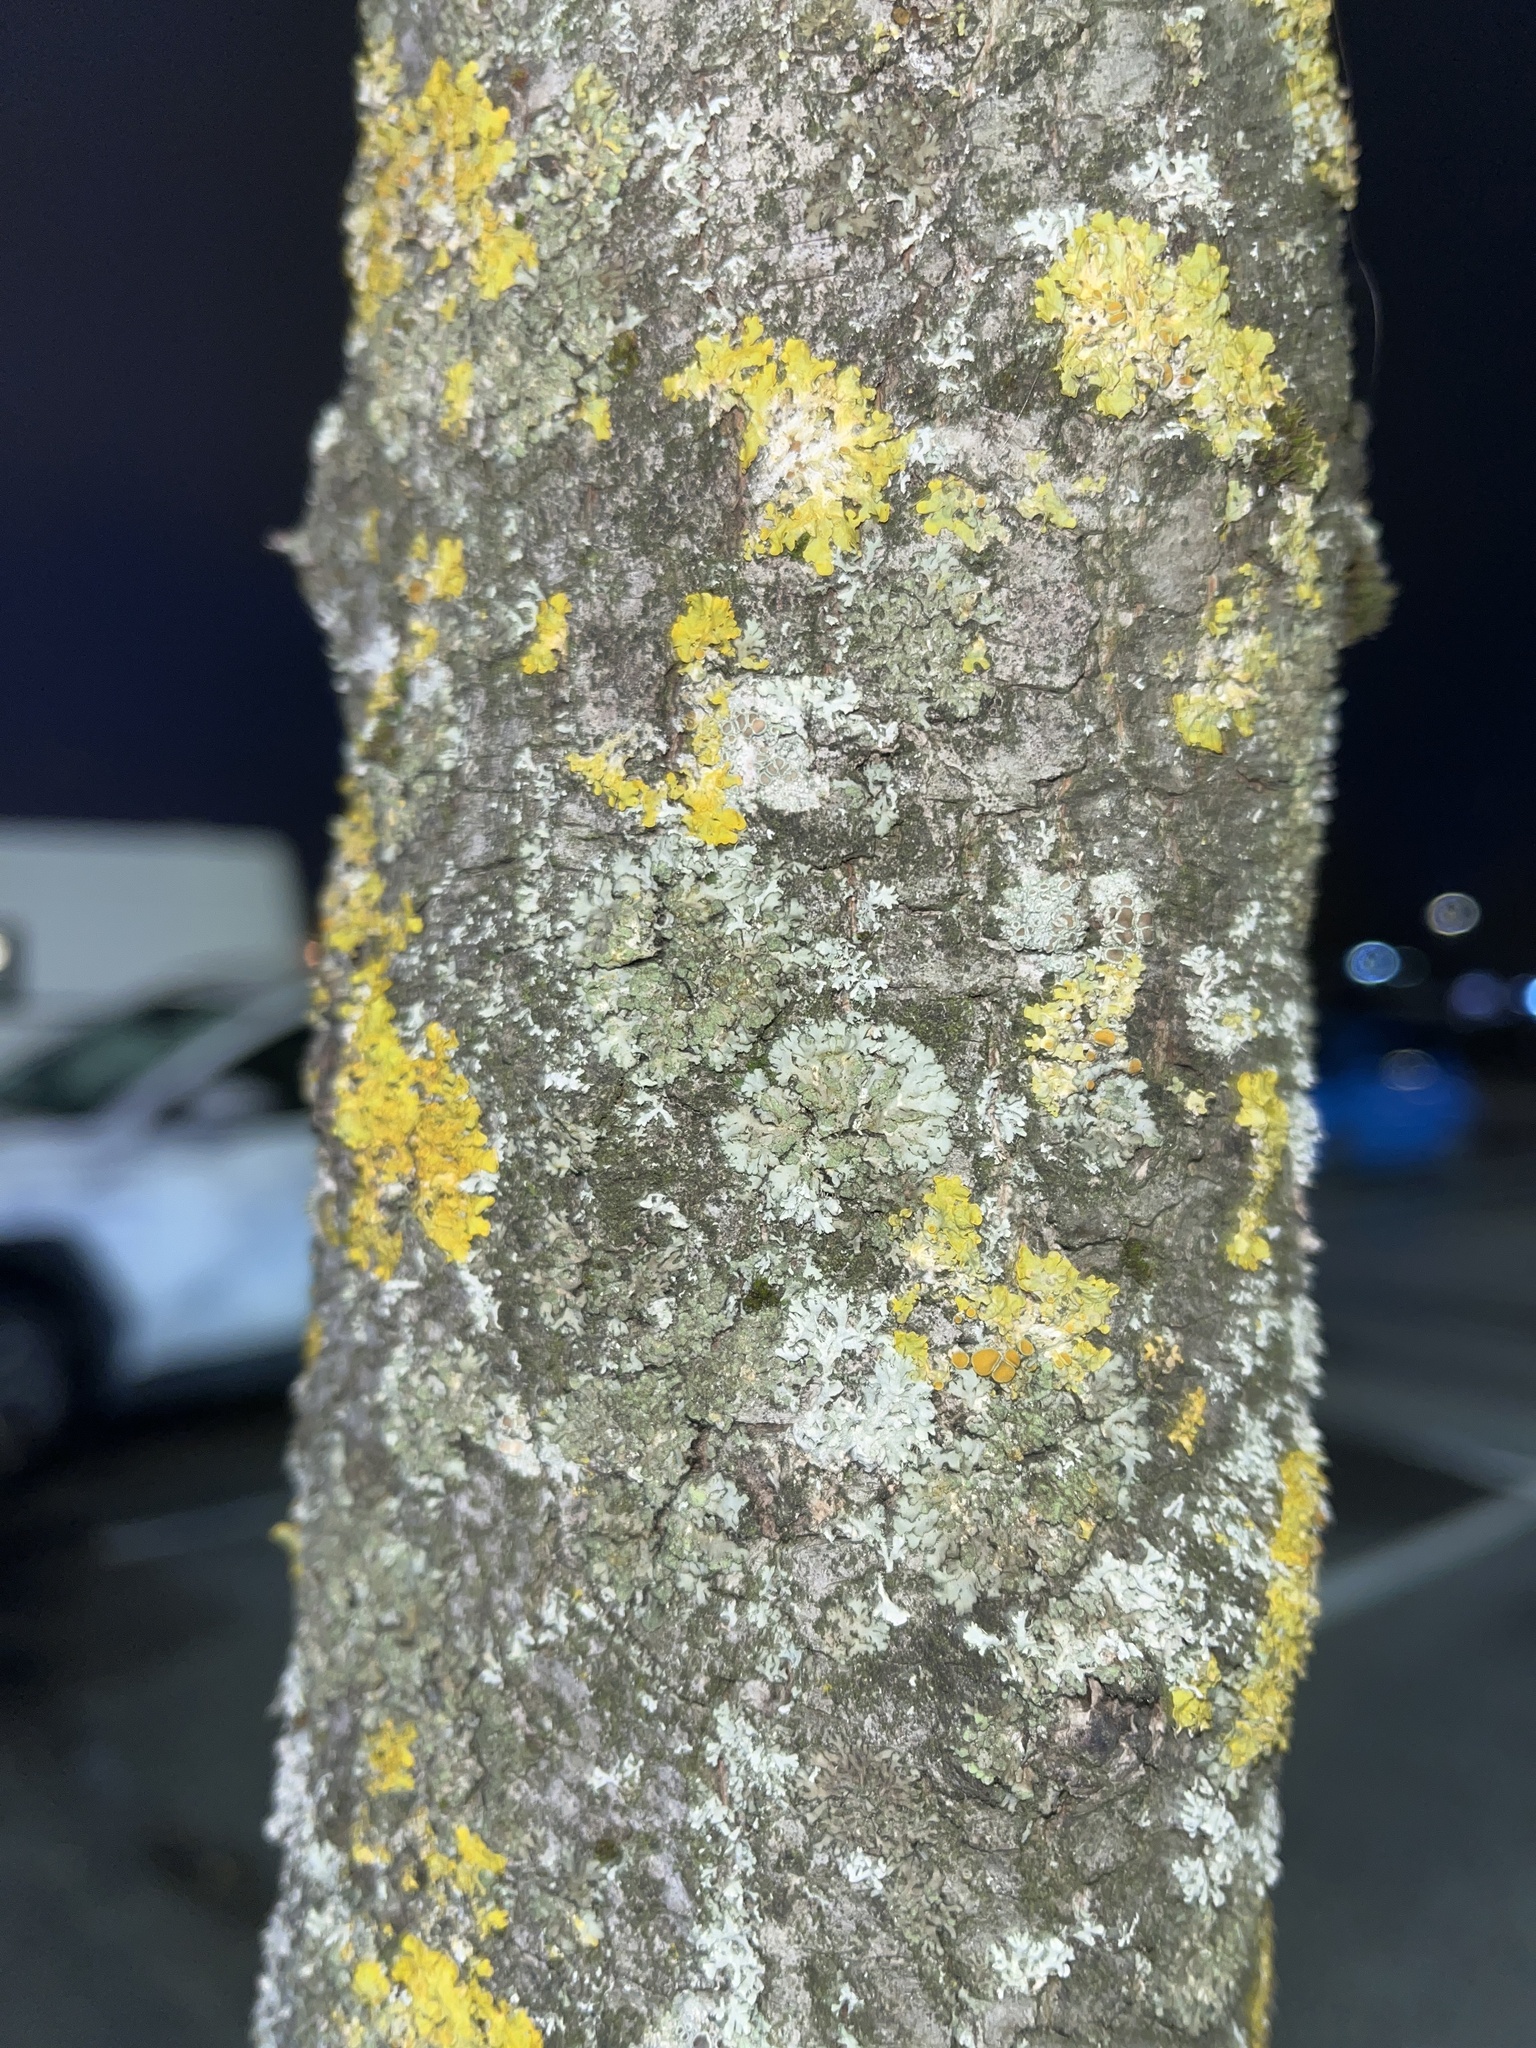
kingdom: Fungi
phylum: Ascomycota
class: Lecanoromycetes
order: Caliciales
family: Physciaceae
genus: Phaeophyscia
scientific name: Phaeophyscia orbicularis
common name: Mealy shadow lichen
